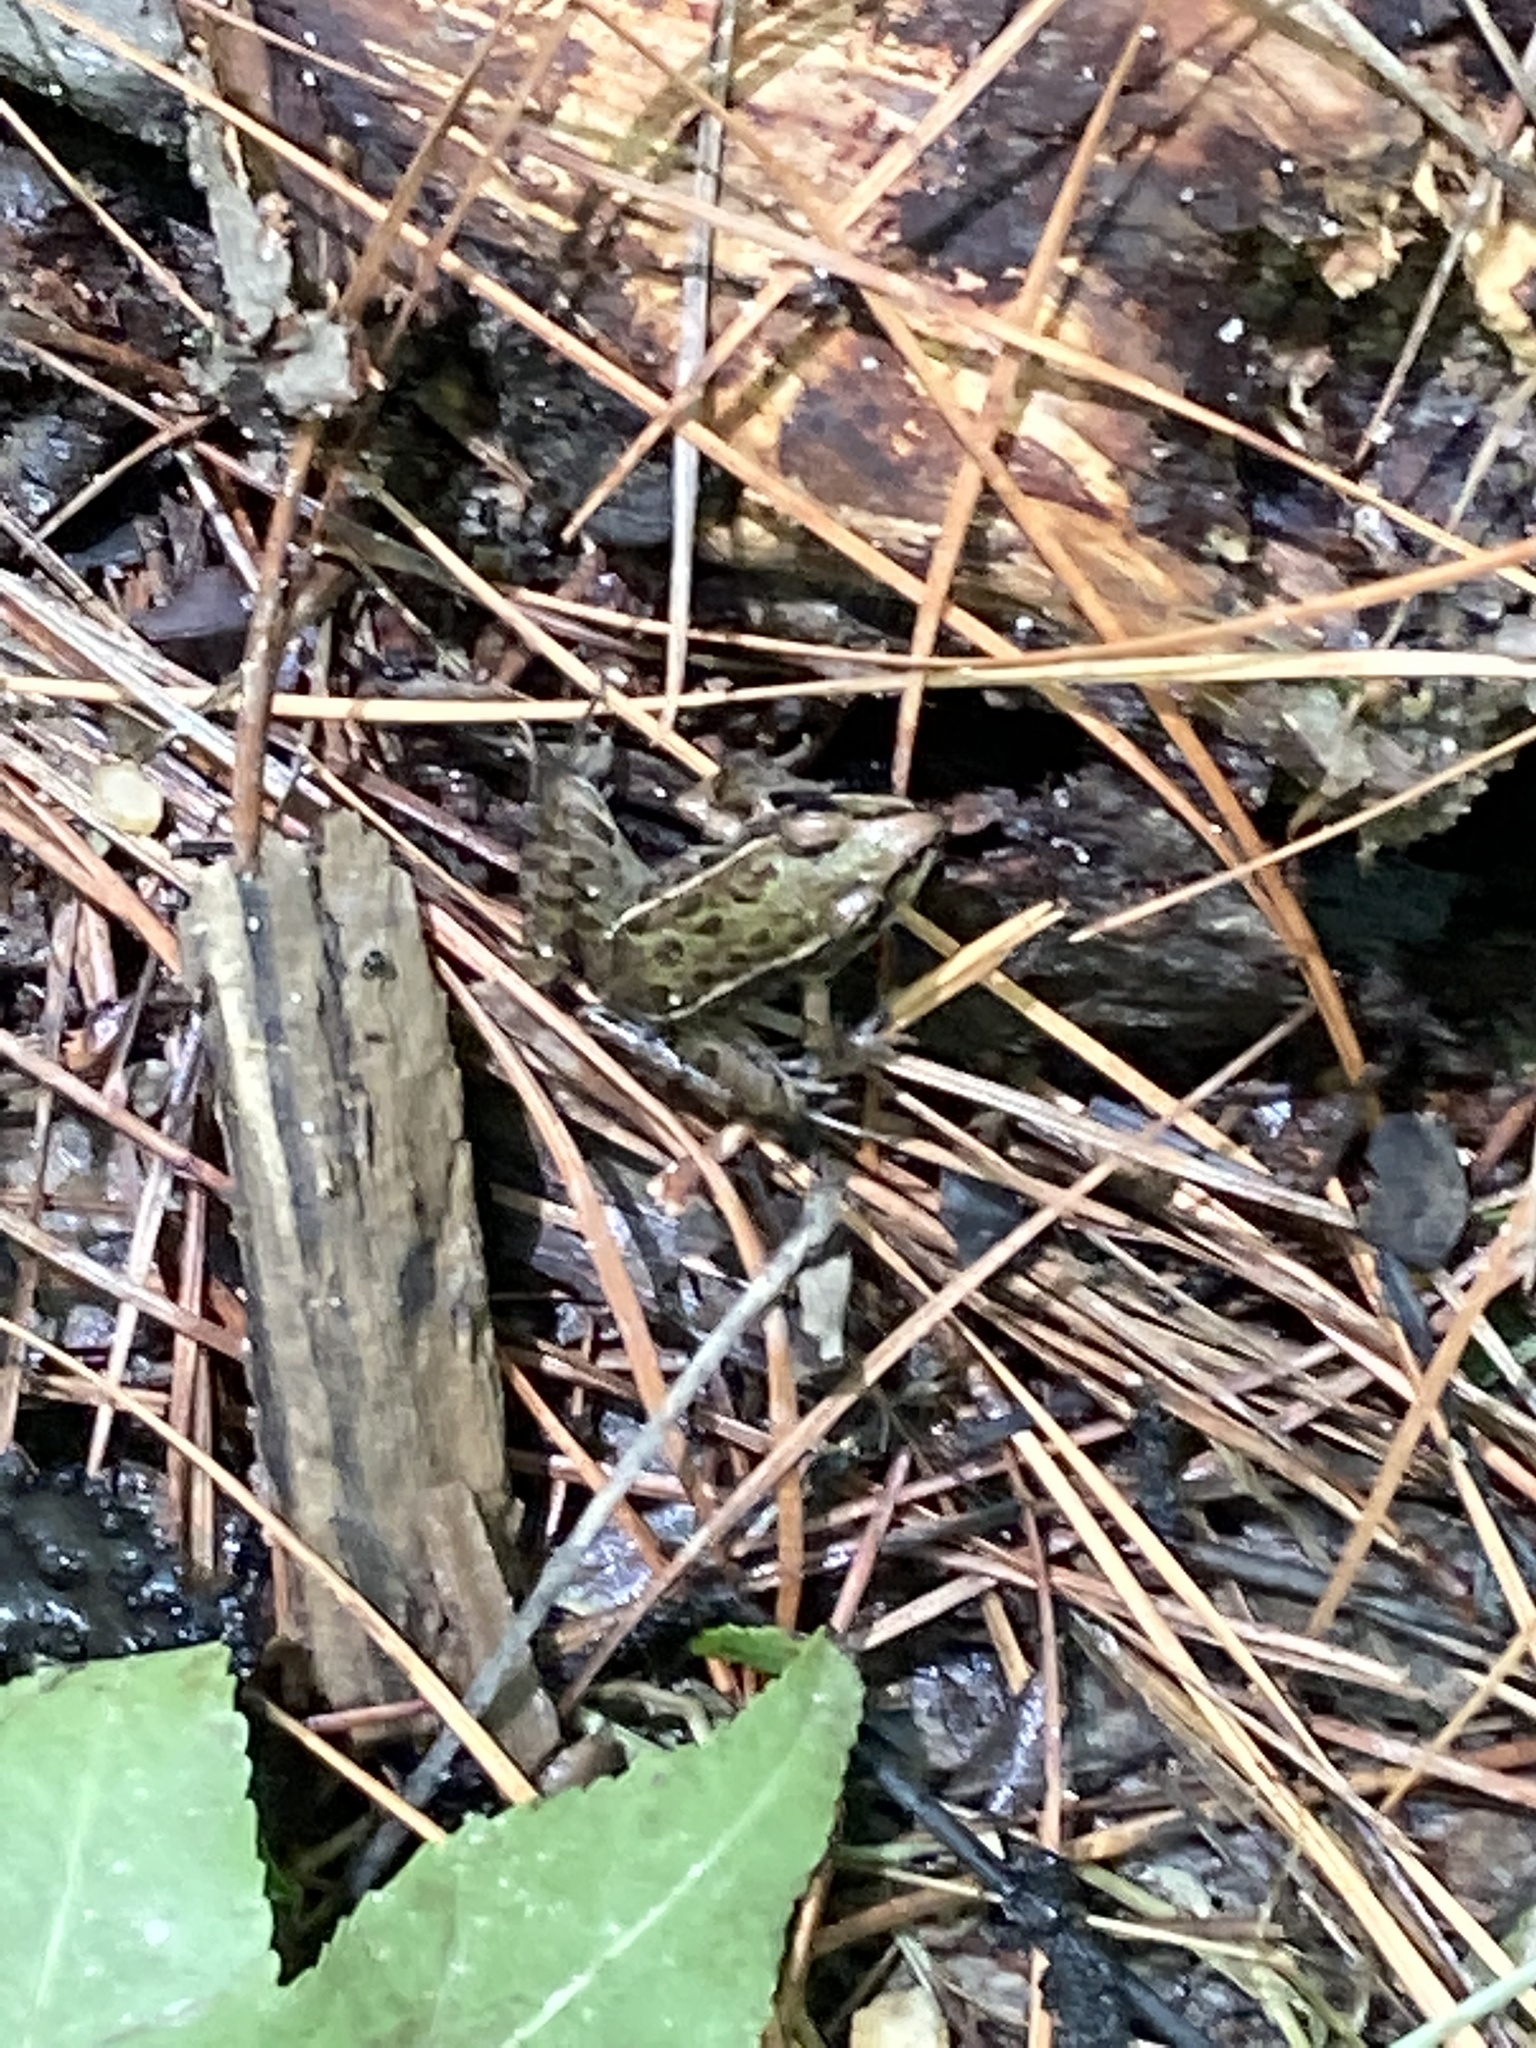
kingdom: Animalia
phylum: Chordata
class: Amphibia
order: Anura
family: Ranidae
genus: Lithobates
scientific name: Lithobates sphenocephalus
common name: Southern leopard frog
